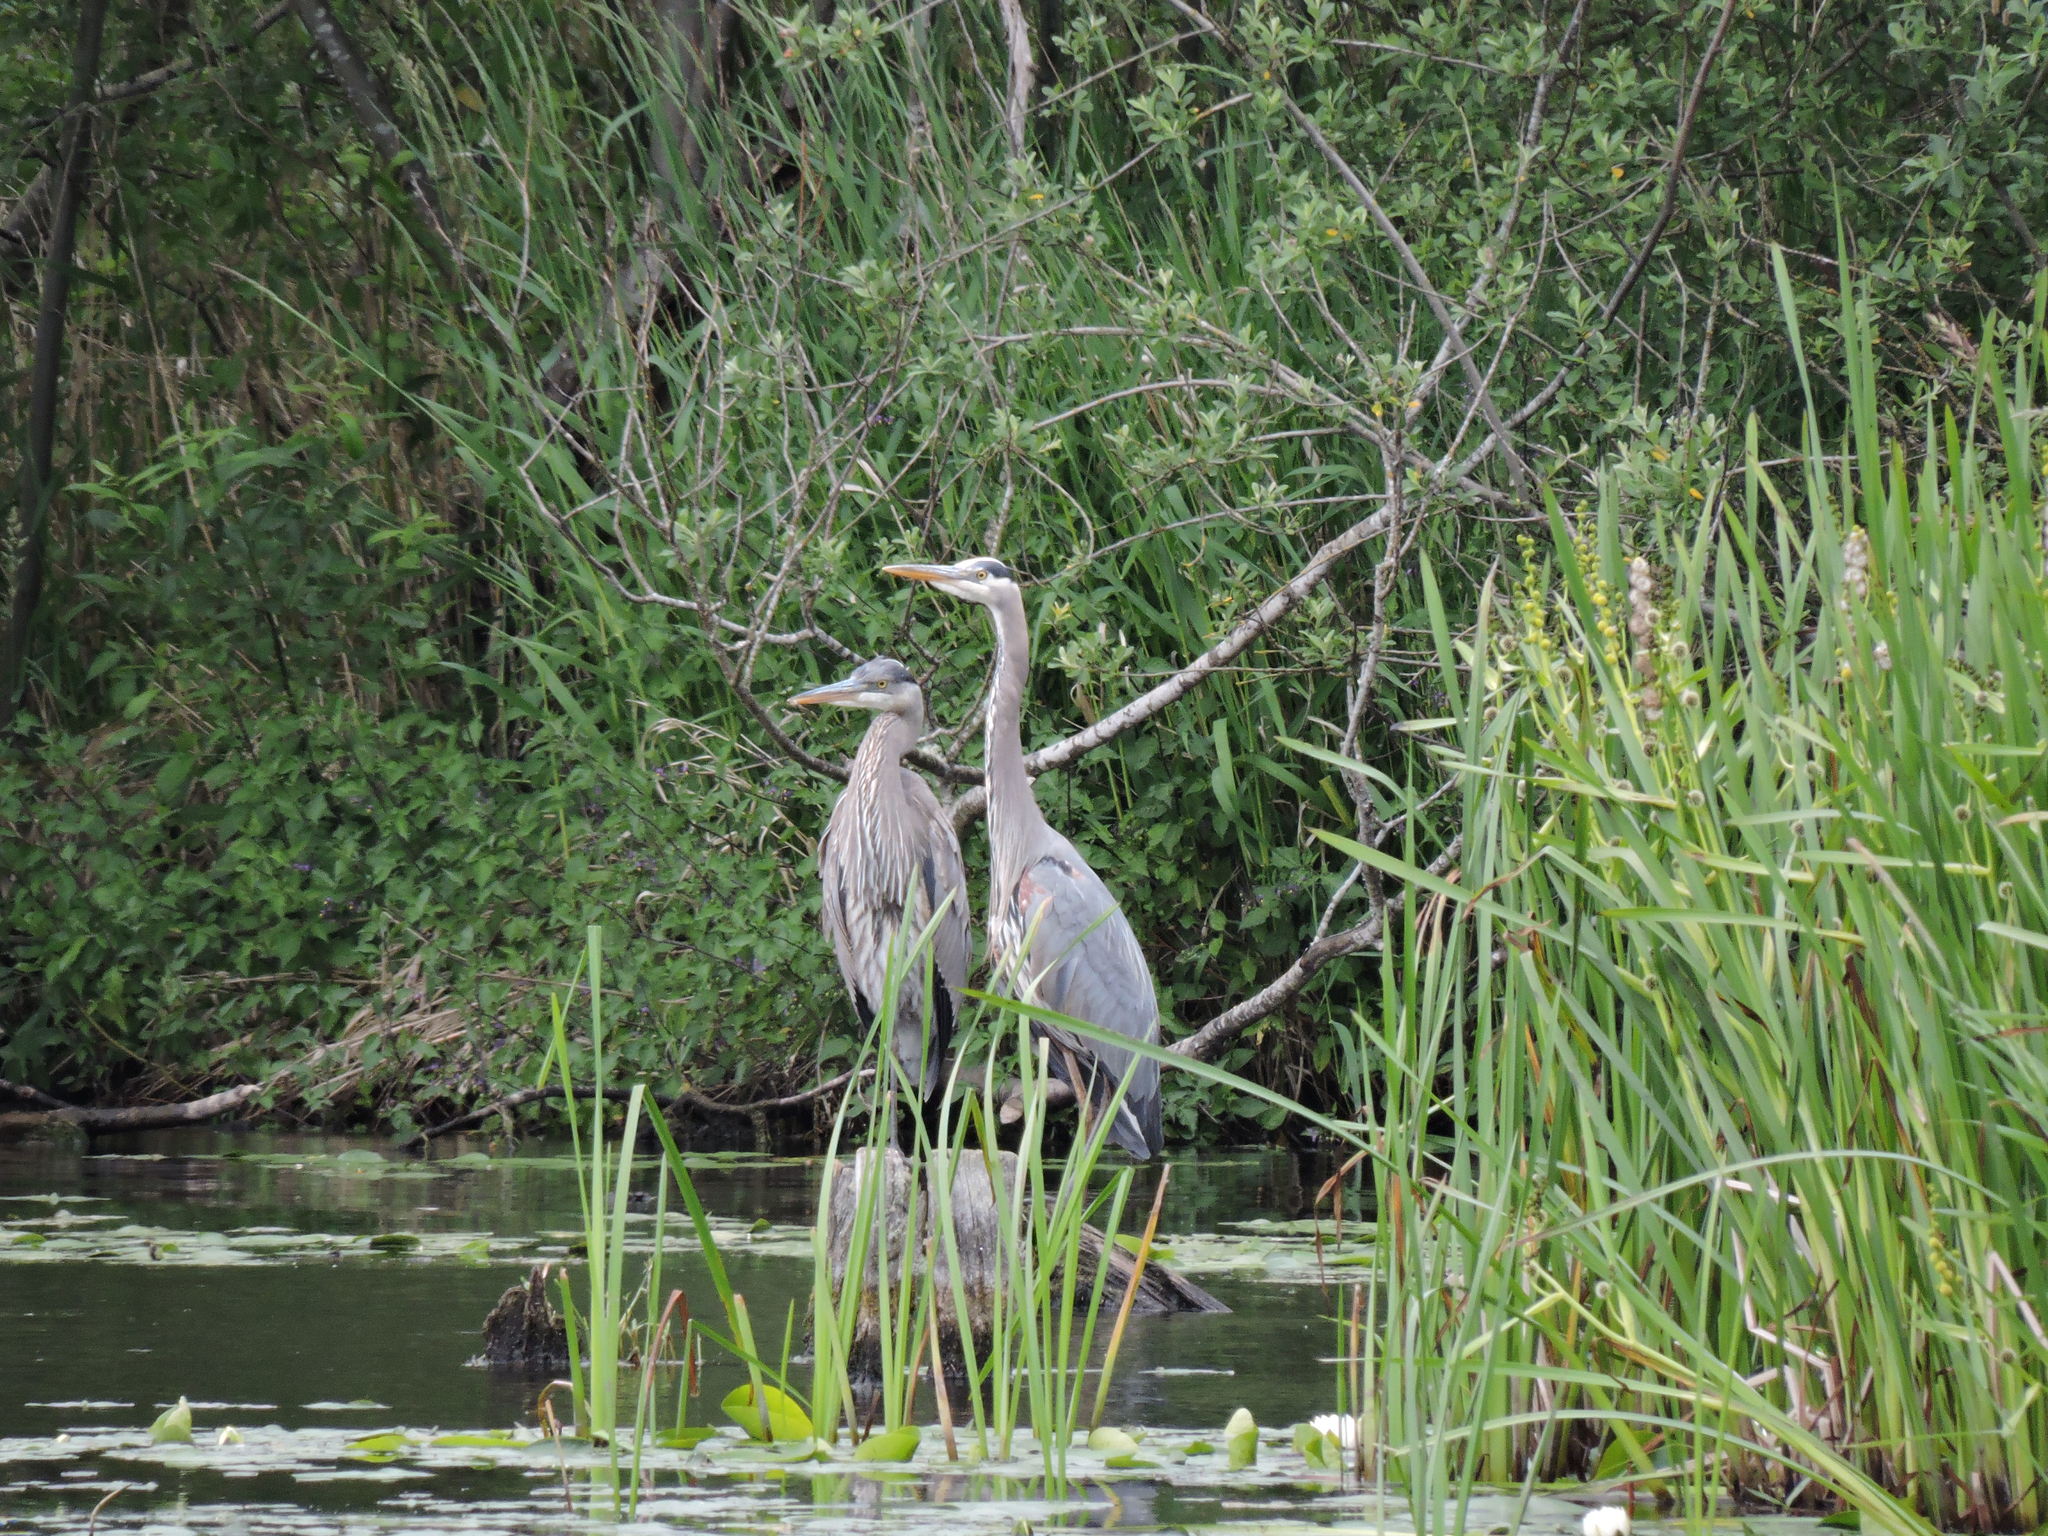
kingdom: Animalia
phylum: Chordata
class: Aves
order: Pelecaniformes
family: Ardeidae
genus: Ardea
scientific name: Ardea herodias
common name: Great blue heron
